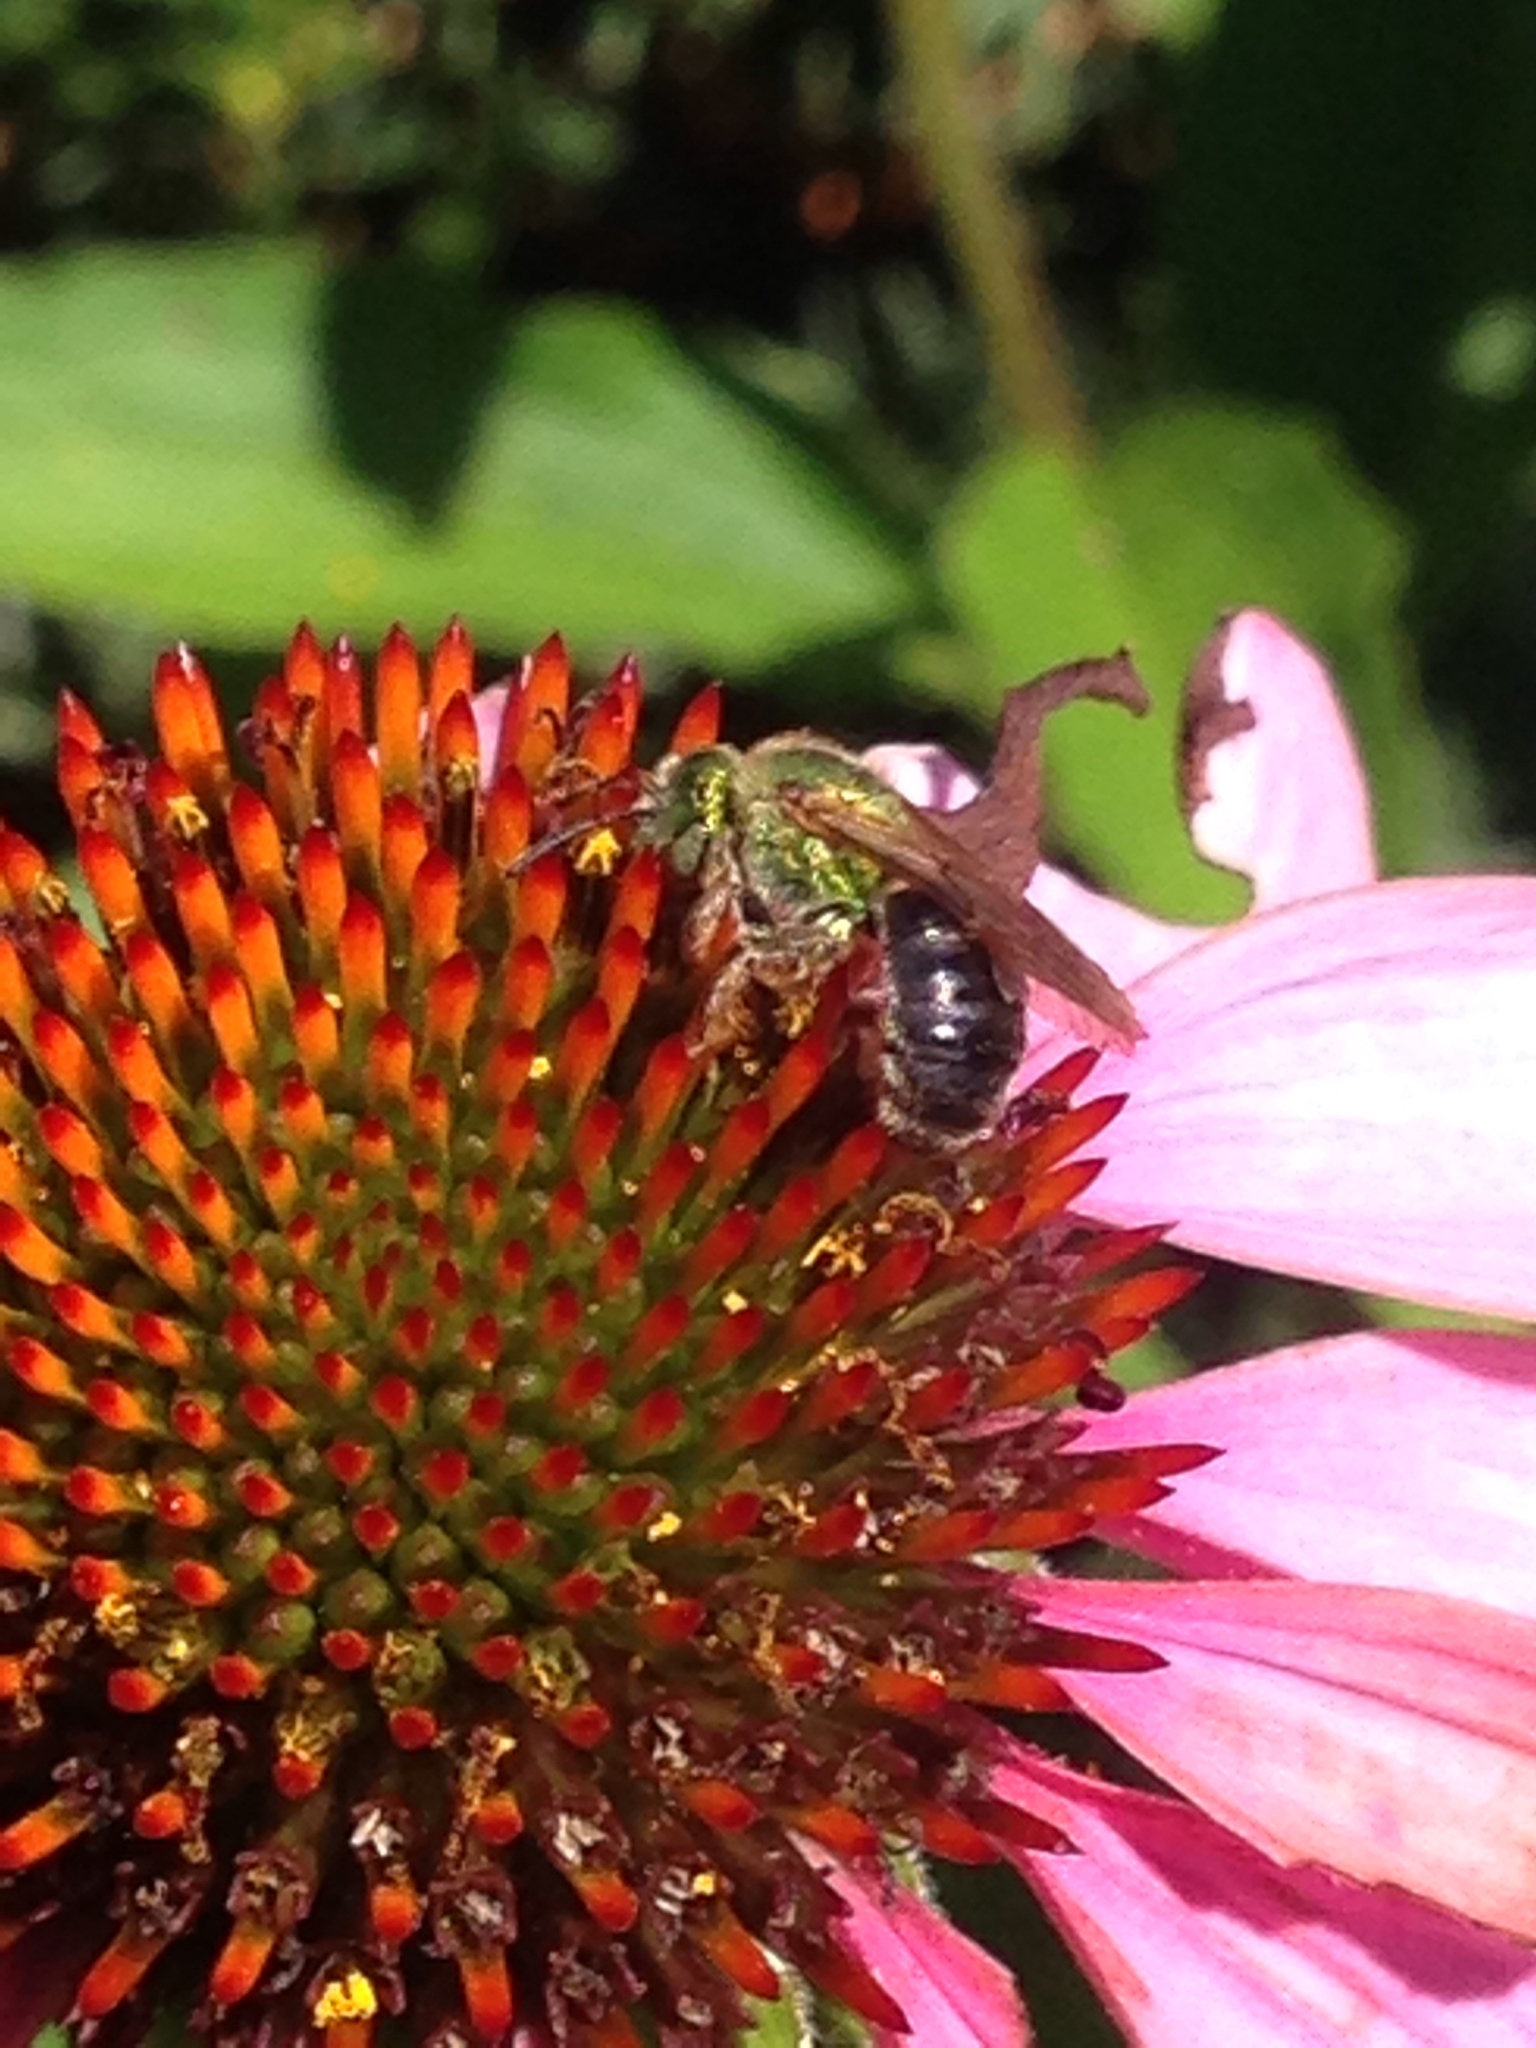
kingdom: Animalia
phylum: Arthropoda
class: Insecta
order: Hymenoptera
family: Halictidae
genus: Agapostemon
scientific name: Agapostemon virescens
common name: Bicolored striped sweat bee
